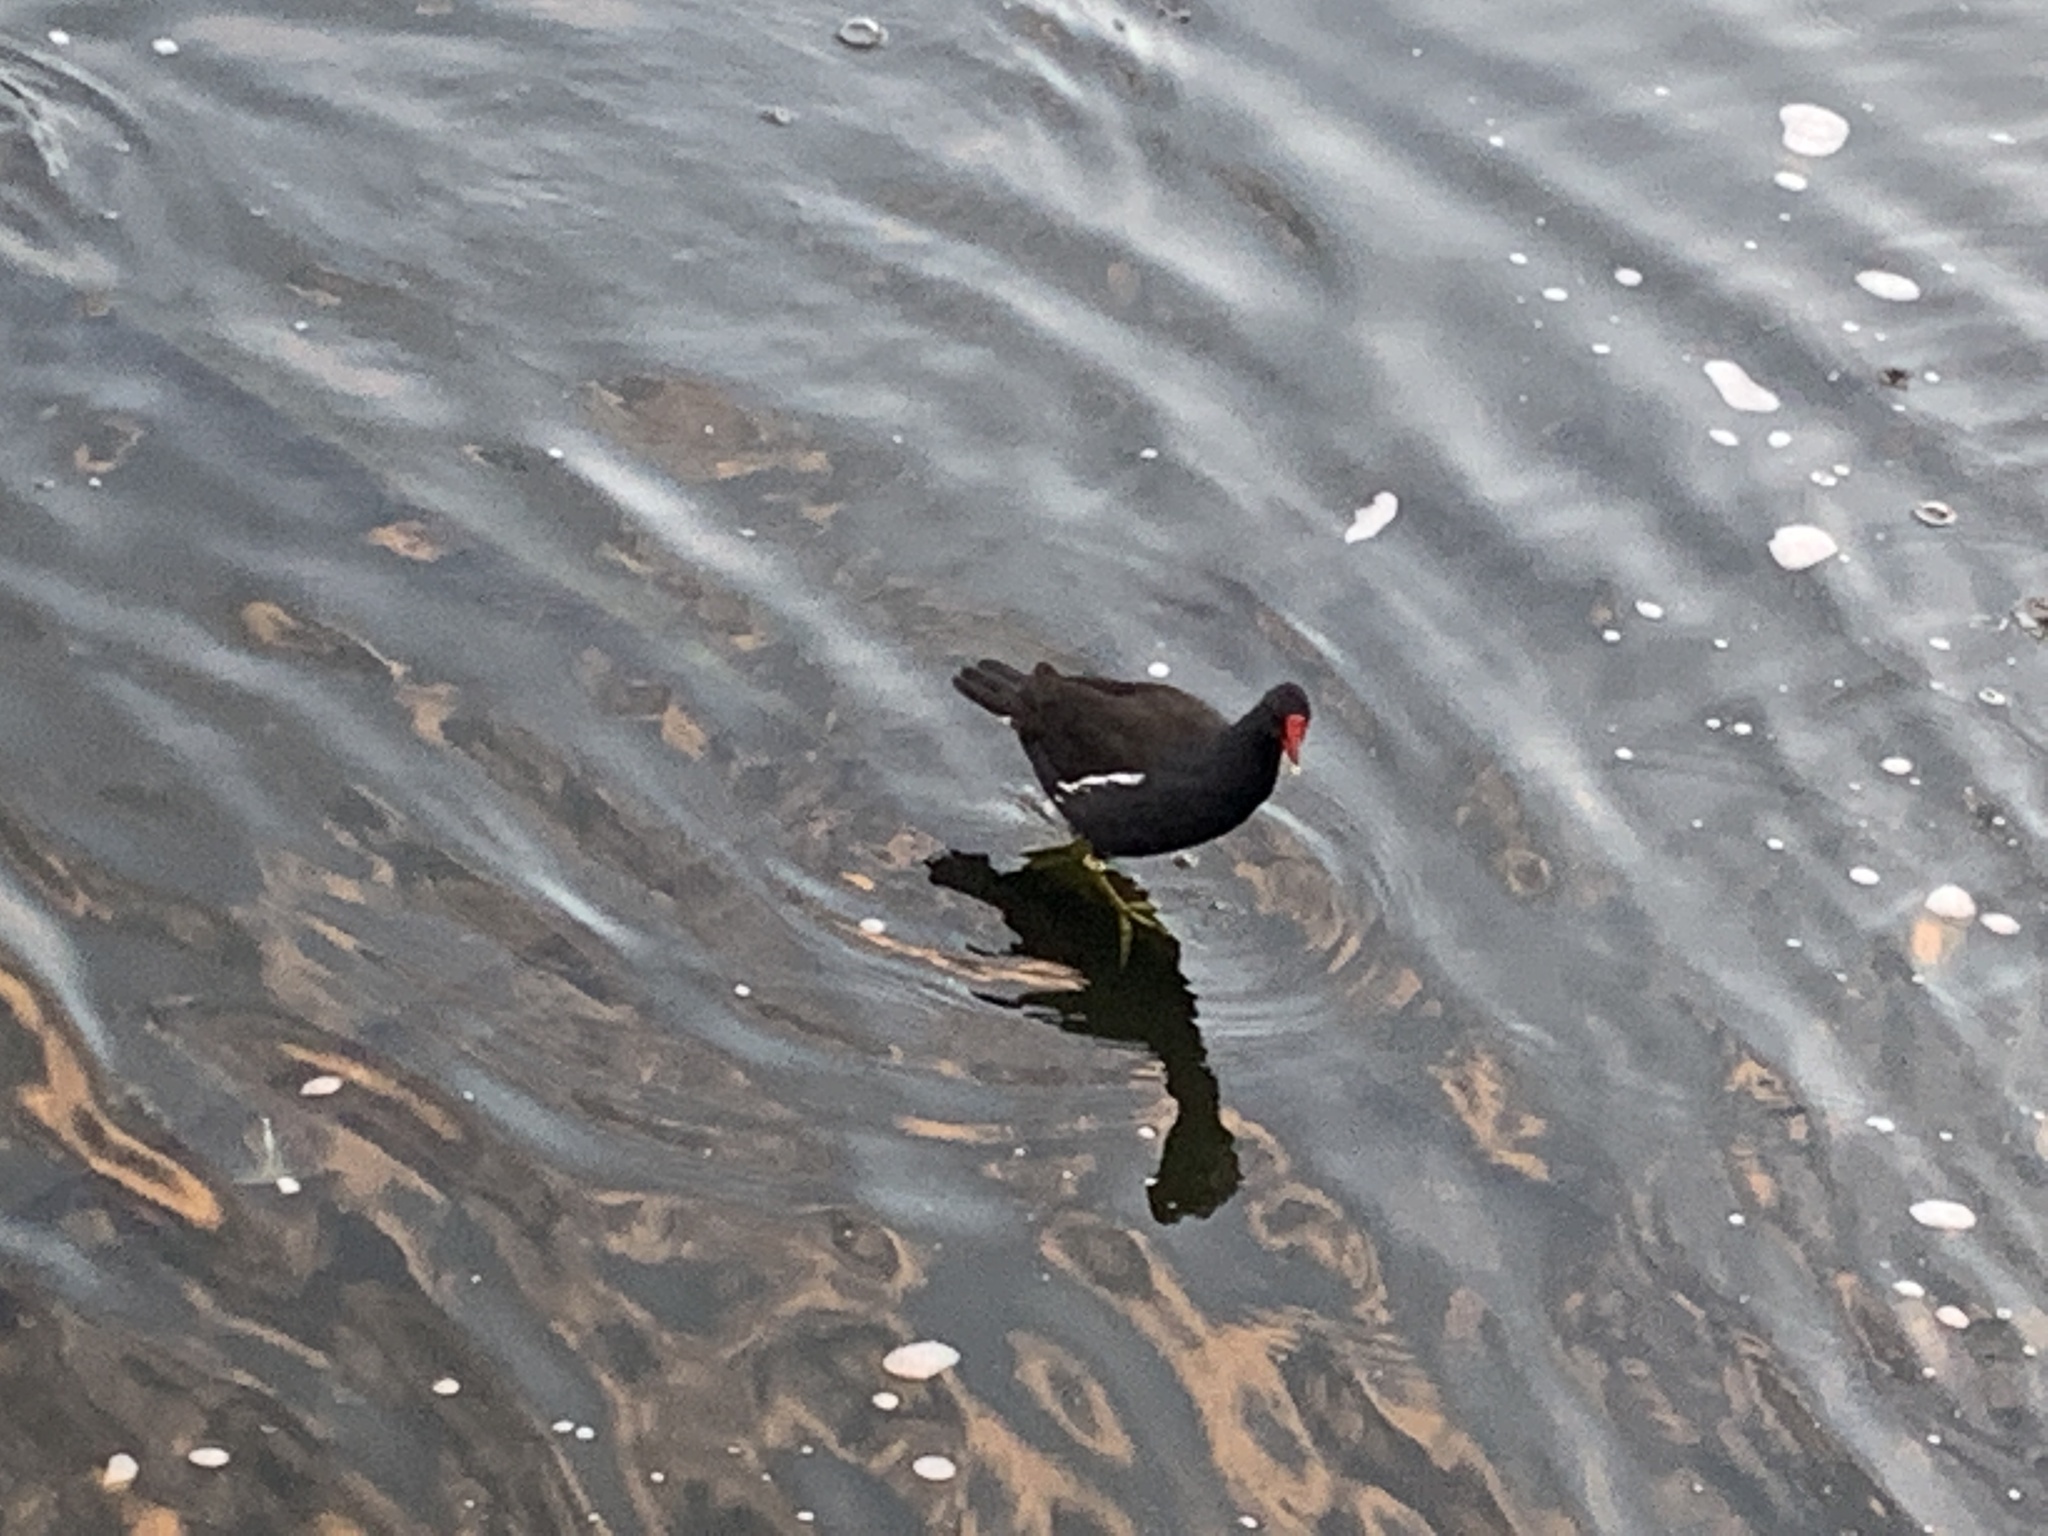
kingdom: Animalia
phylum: Chordata
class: Aves
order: Gruiformes
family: Rallidae
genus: Gallinula
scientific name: Gallinula chloropus
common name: Common moorhen
